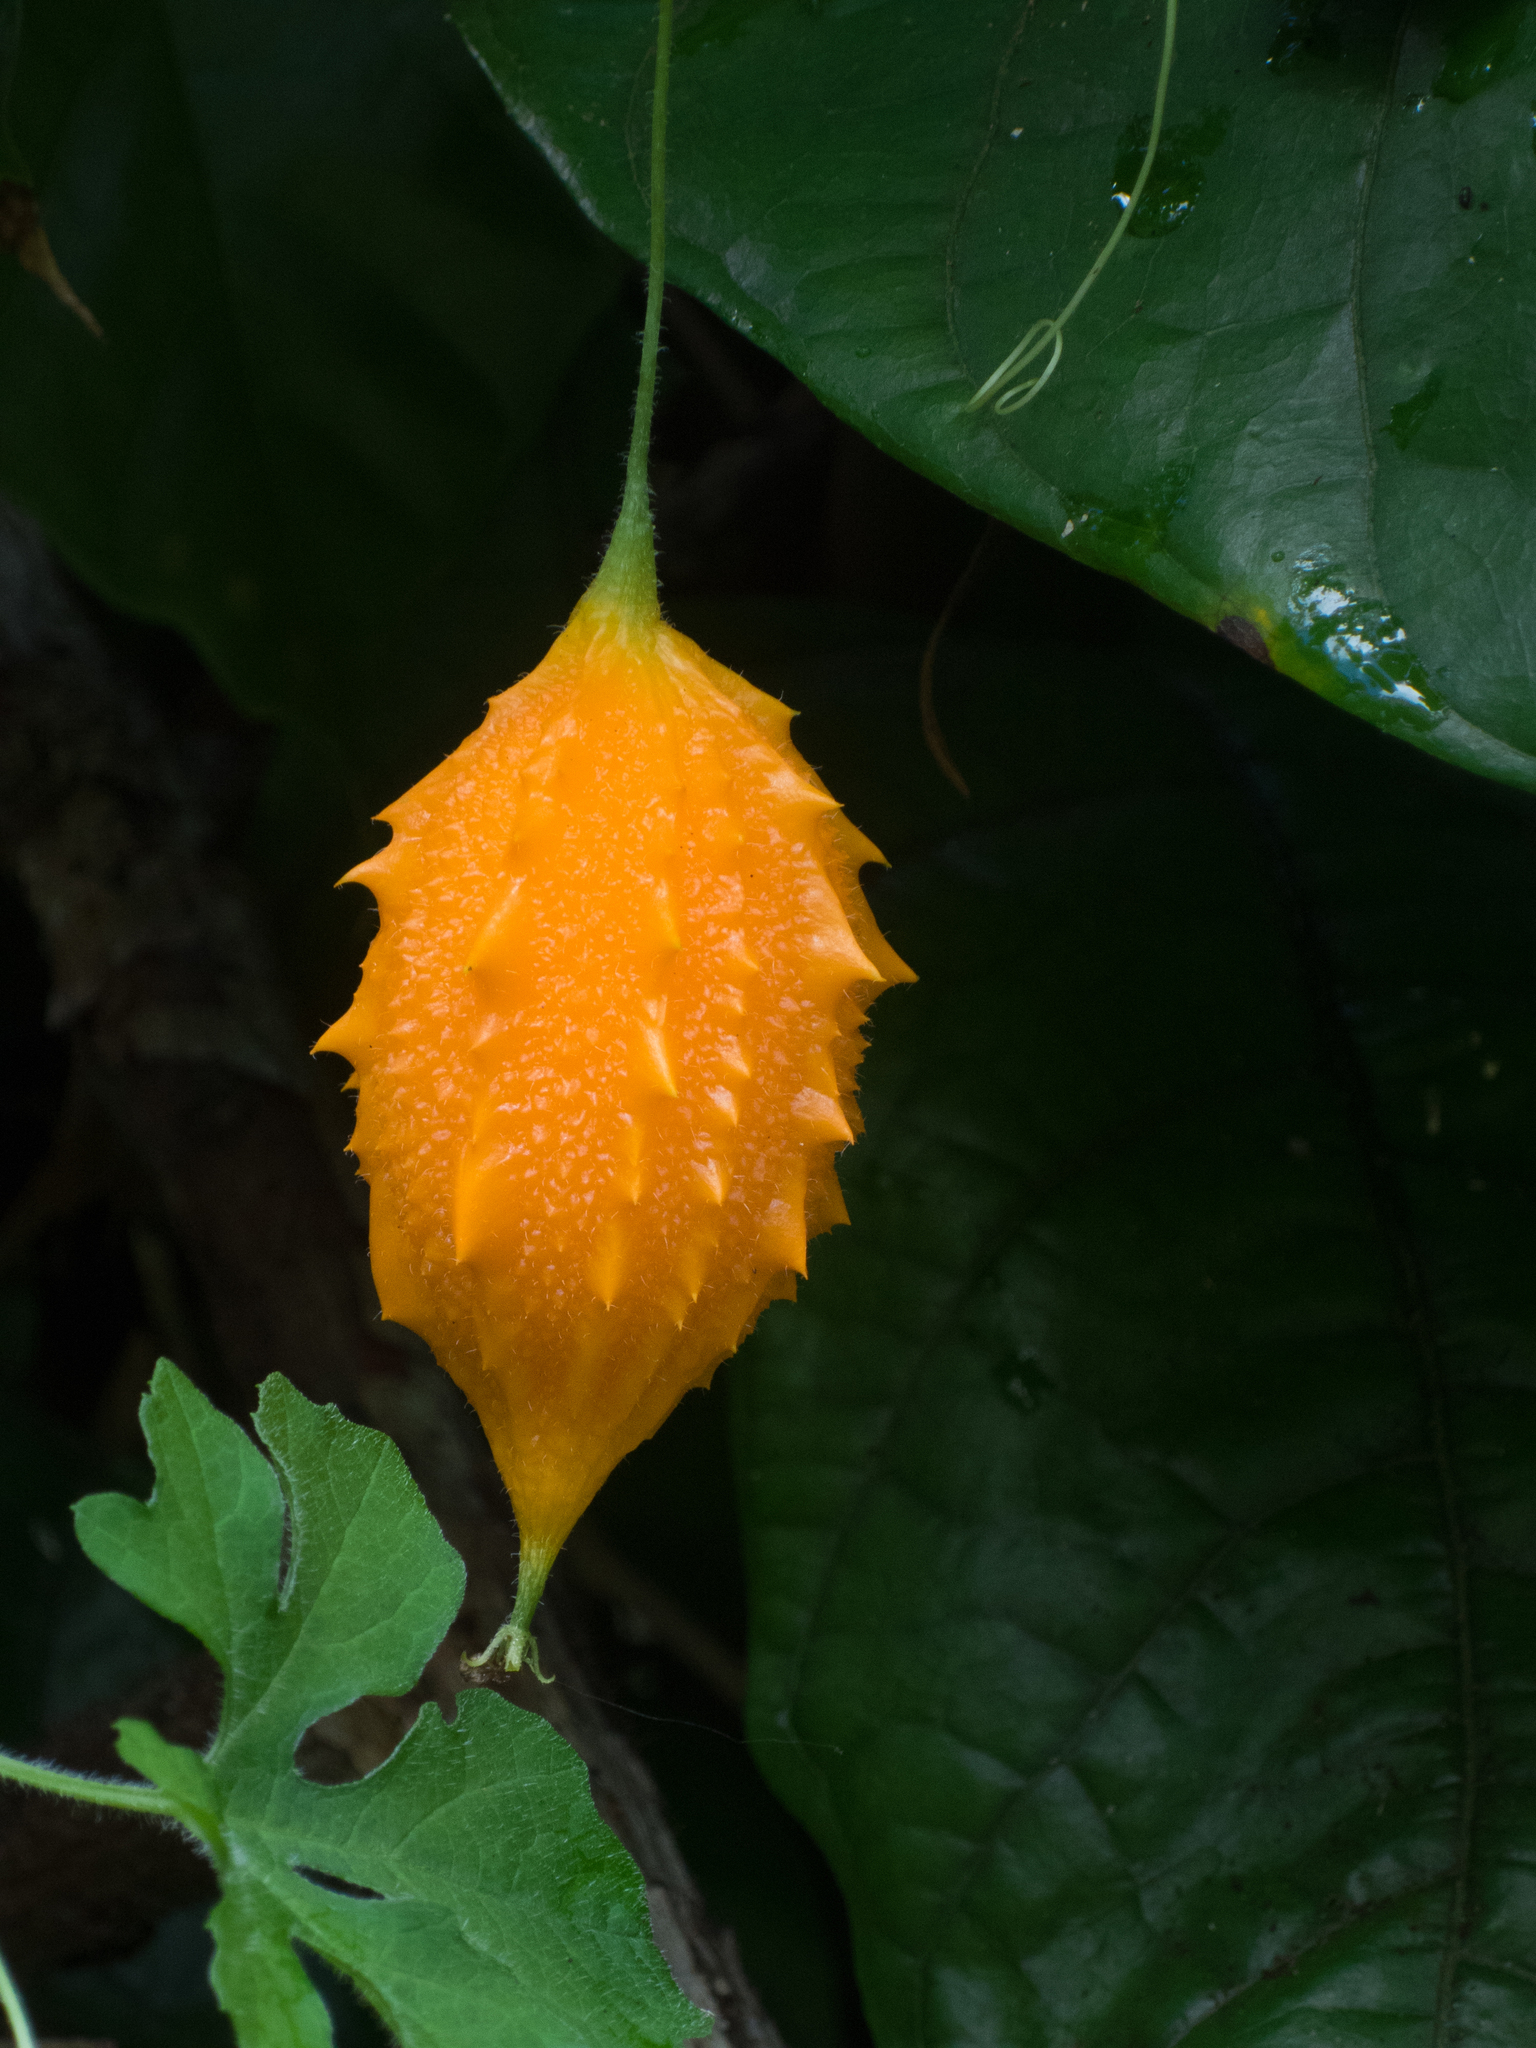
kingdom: Plantae
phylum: Tracheophyta
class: Magnoliopsida
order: Cucurbitales
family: Cucurbitaceae
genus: Momordica
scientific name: Momordica charantia
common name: Balsampear
